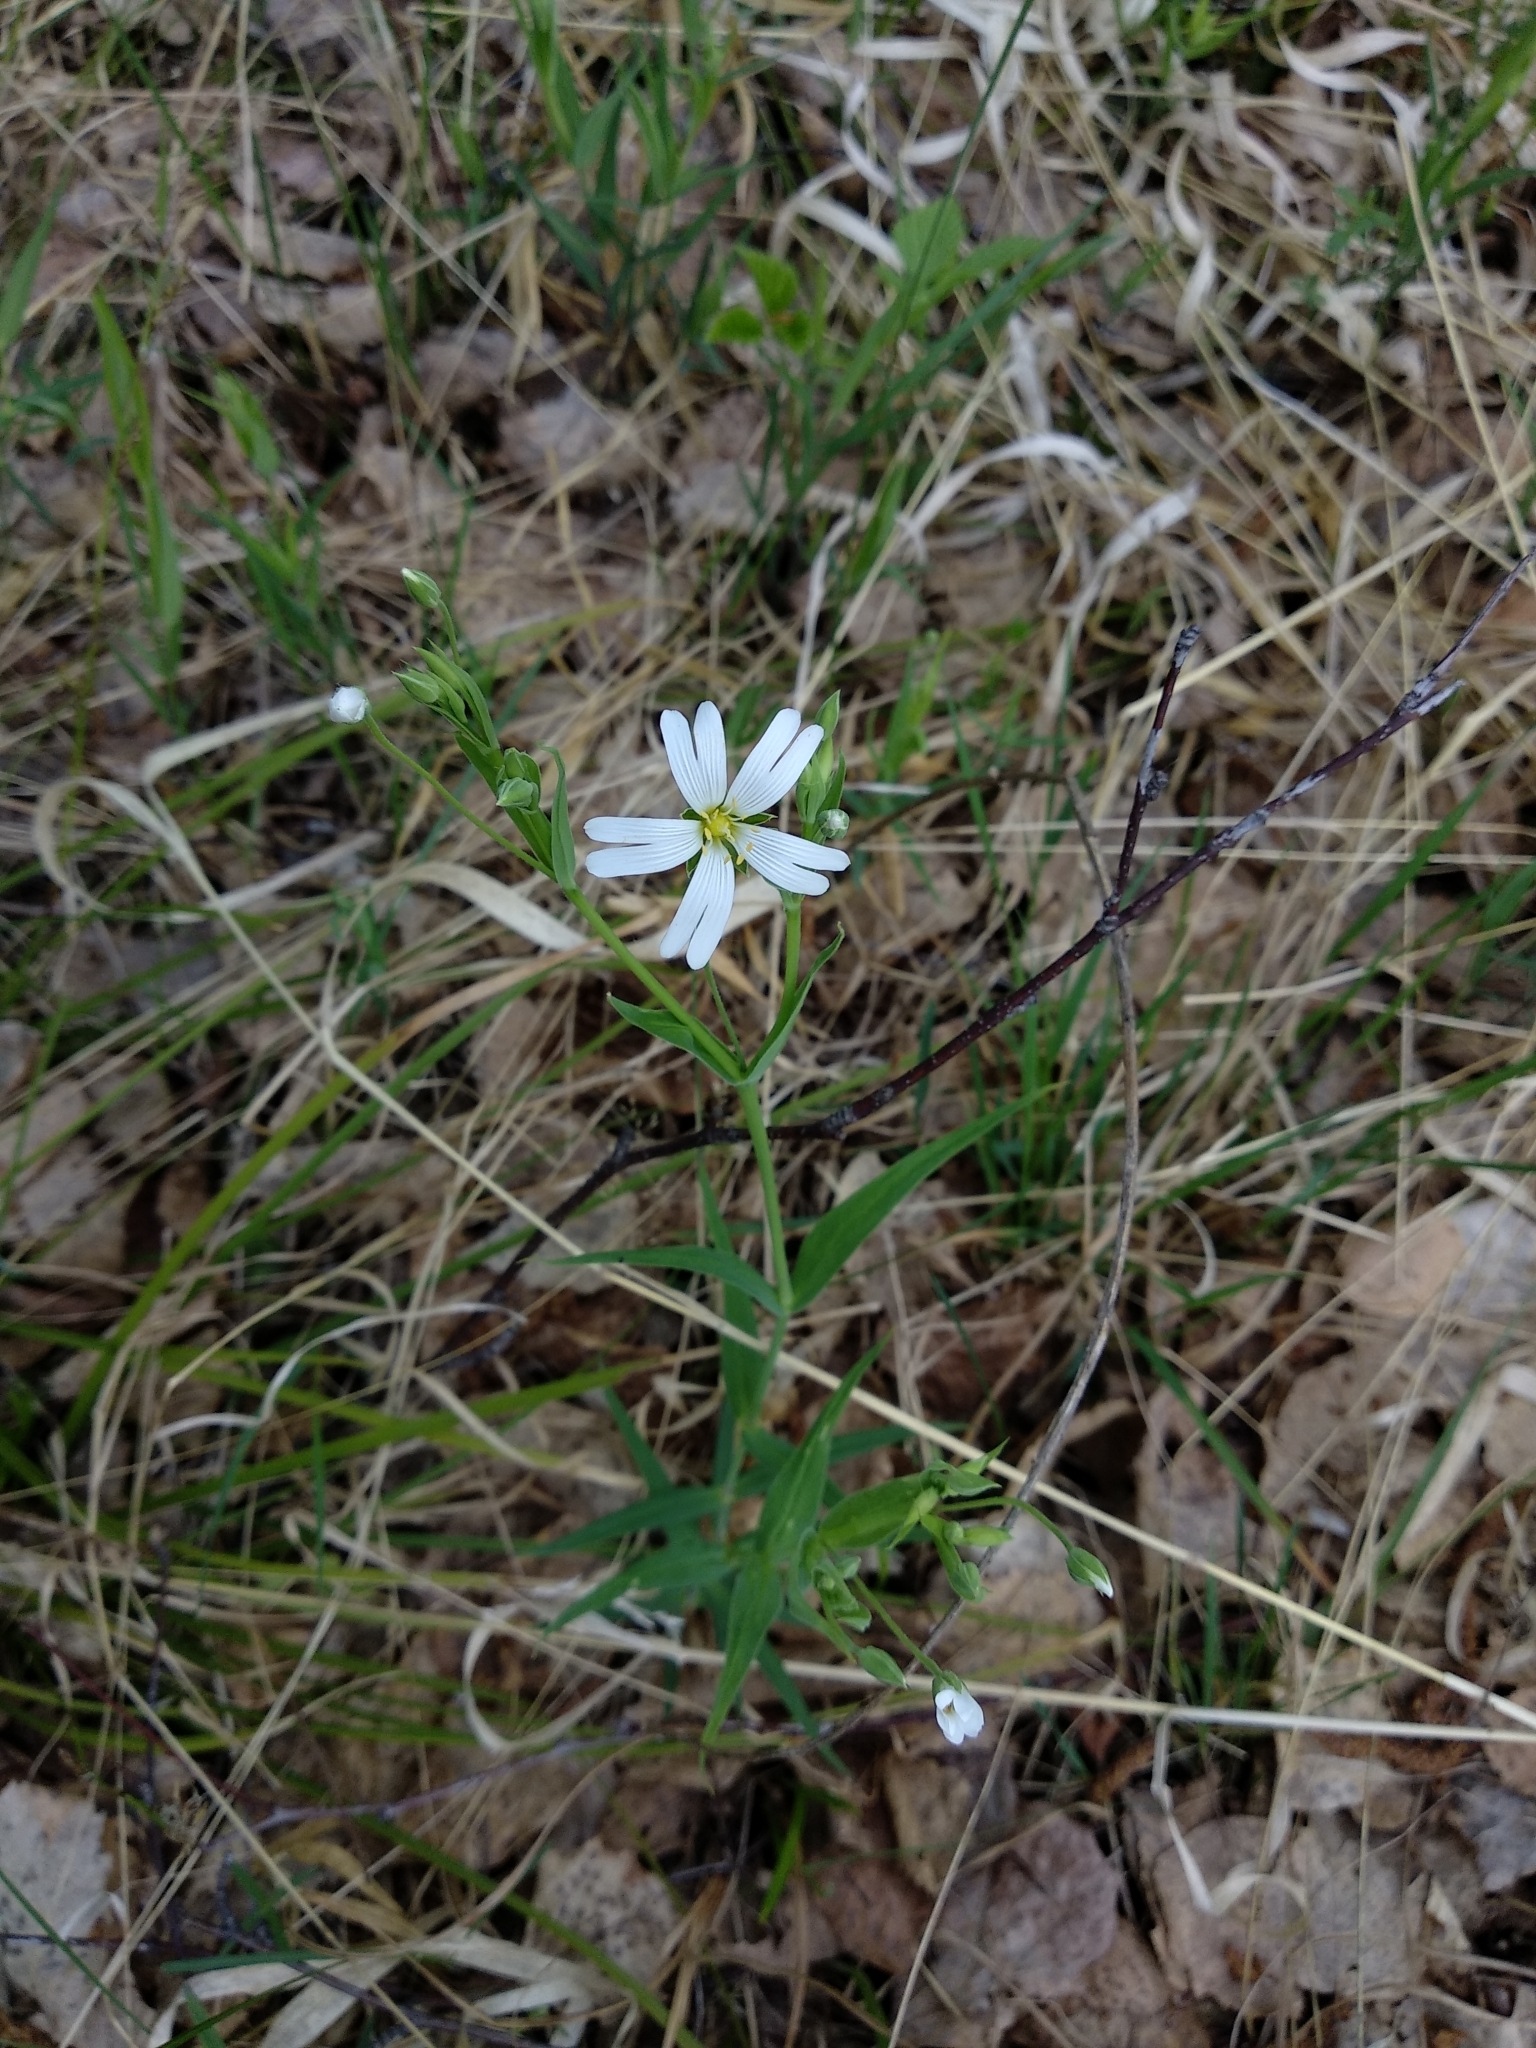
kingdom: Plantae
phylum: Tracheophyta
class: Magnoliopsida
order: Caryophyllales
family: Caryophyllaceae
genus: Rabelera
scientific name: Rabelera holostea
